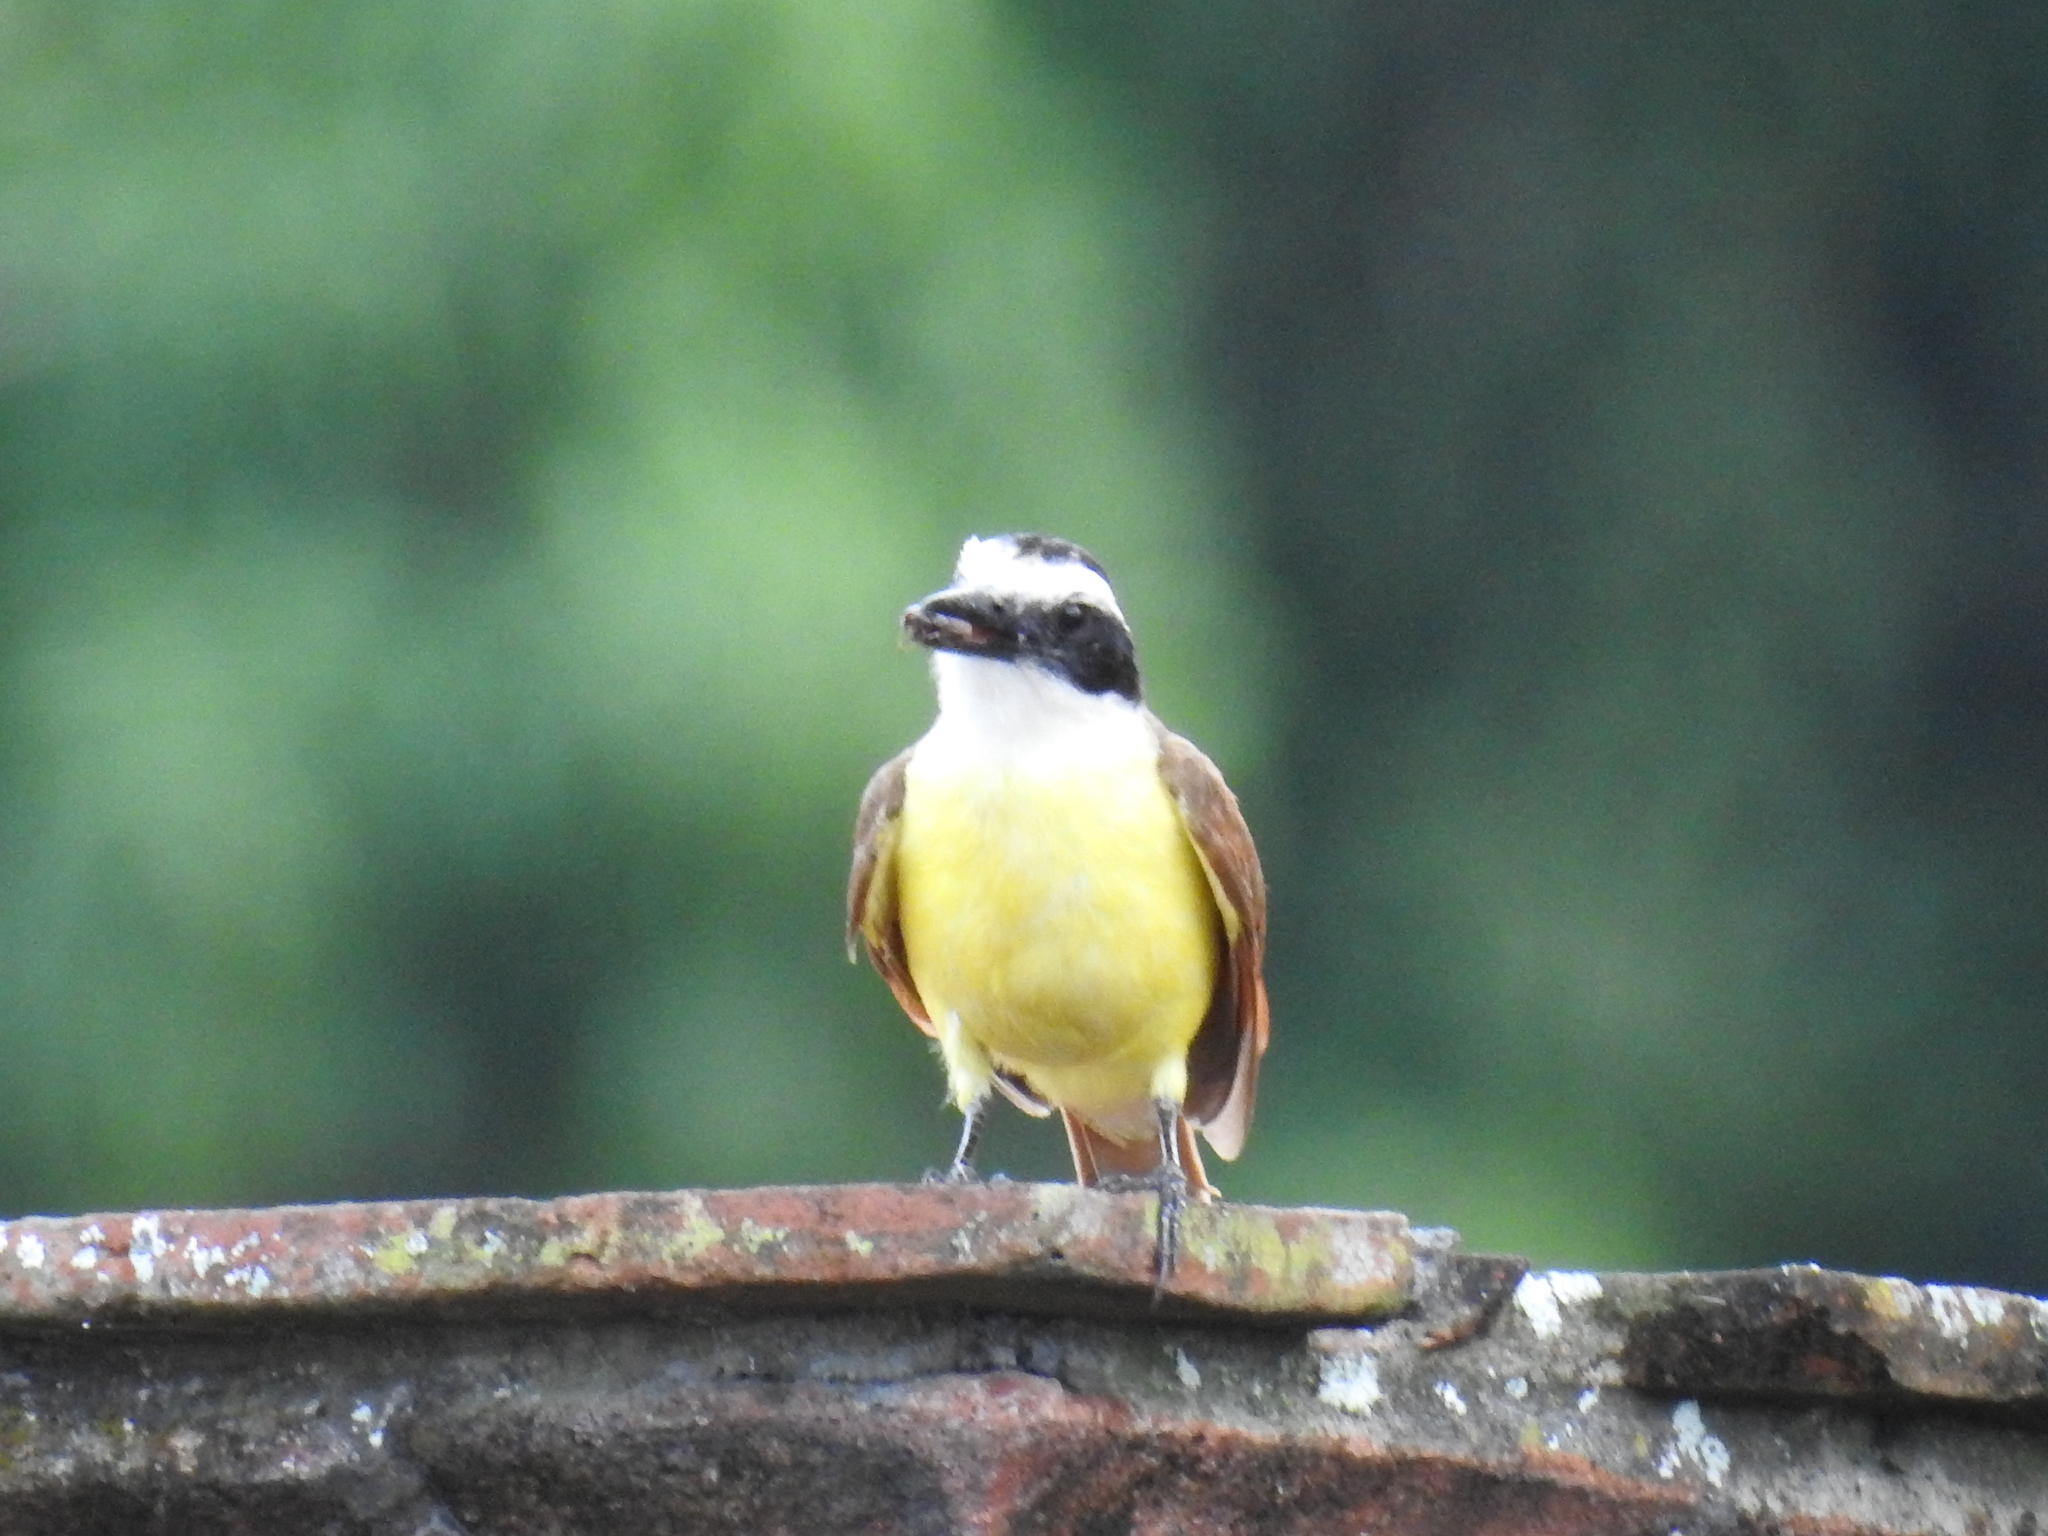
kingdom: Animalia
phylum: Chordata
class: Aves
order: Passeriformes
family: Tyrannidae
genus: Pitangus
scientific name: Pitangus sulphuratus
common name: Great kiskadee
